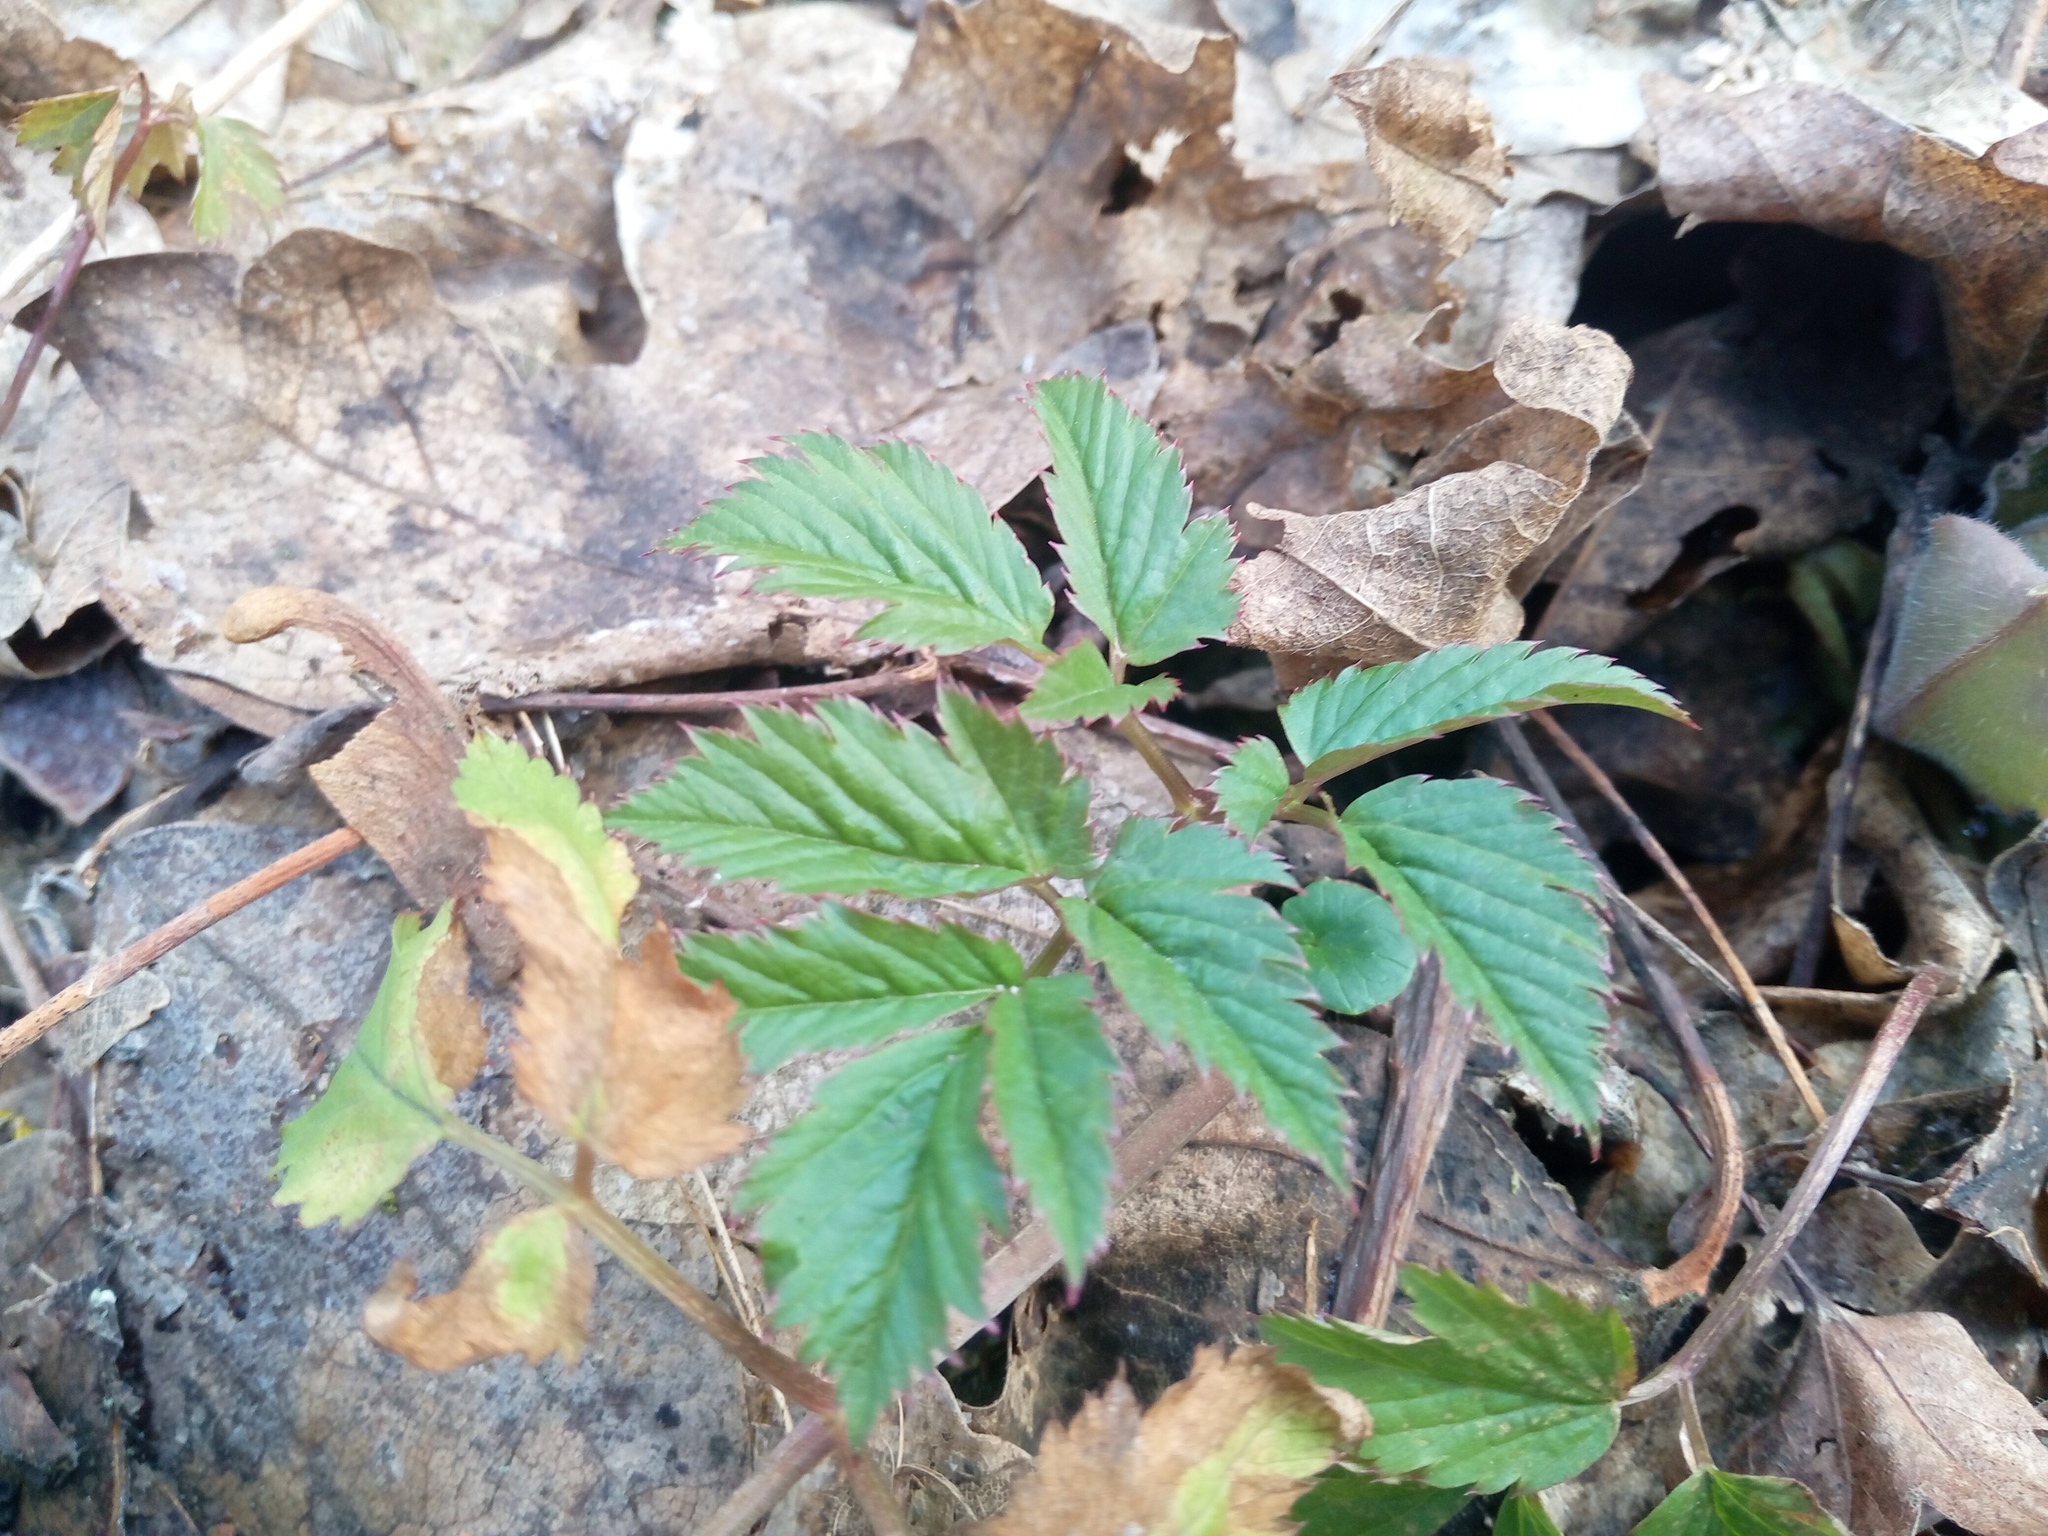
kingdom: Plantae
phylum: Tracheophyta
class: Magnoliopsida
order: Apiales
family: Apiaceae
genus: Aegopodium
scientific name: Aegopodium podagraria
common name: Ground-elder
